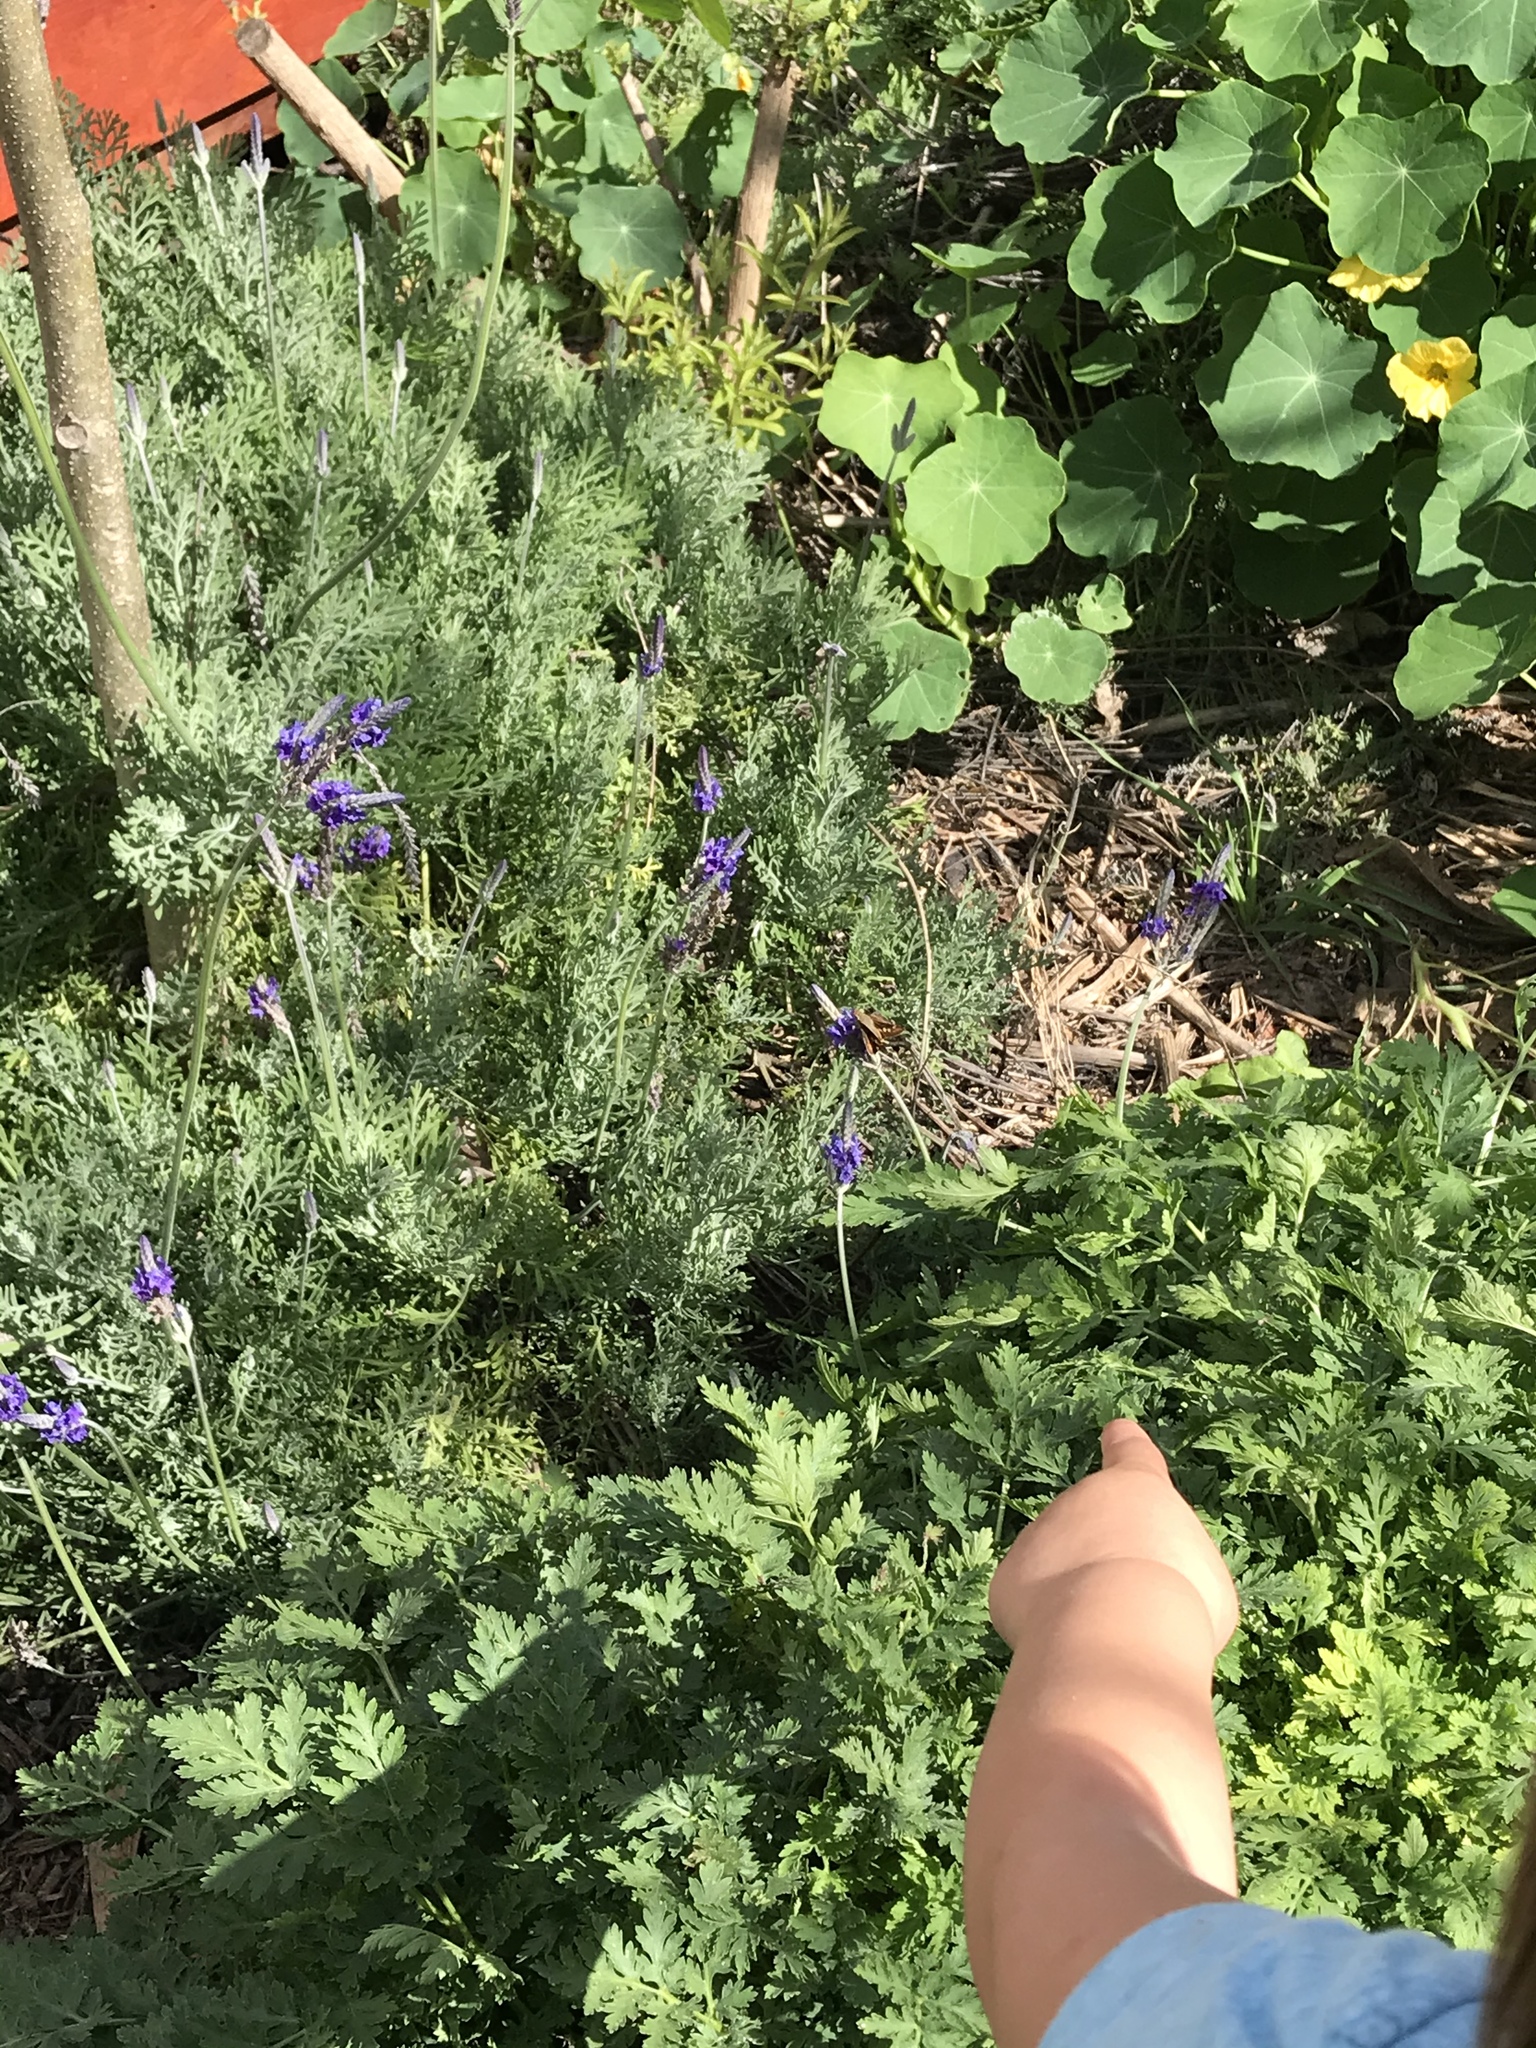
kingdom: Animalia
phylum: Arthropoda
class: Insecta
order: Lepidoptera
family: Hesperiidae
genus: Lon
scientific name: Lon melane
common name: Umber skipper
